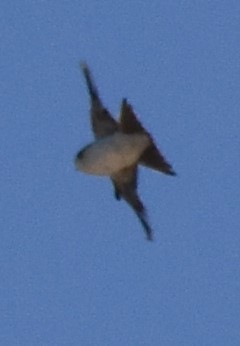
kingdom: Animalia
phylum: Chordata
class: Aves
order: Passeriformes
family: Hirundinidae
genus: Delichon
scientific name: Delichon urbicum
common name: Common house martin
